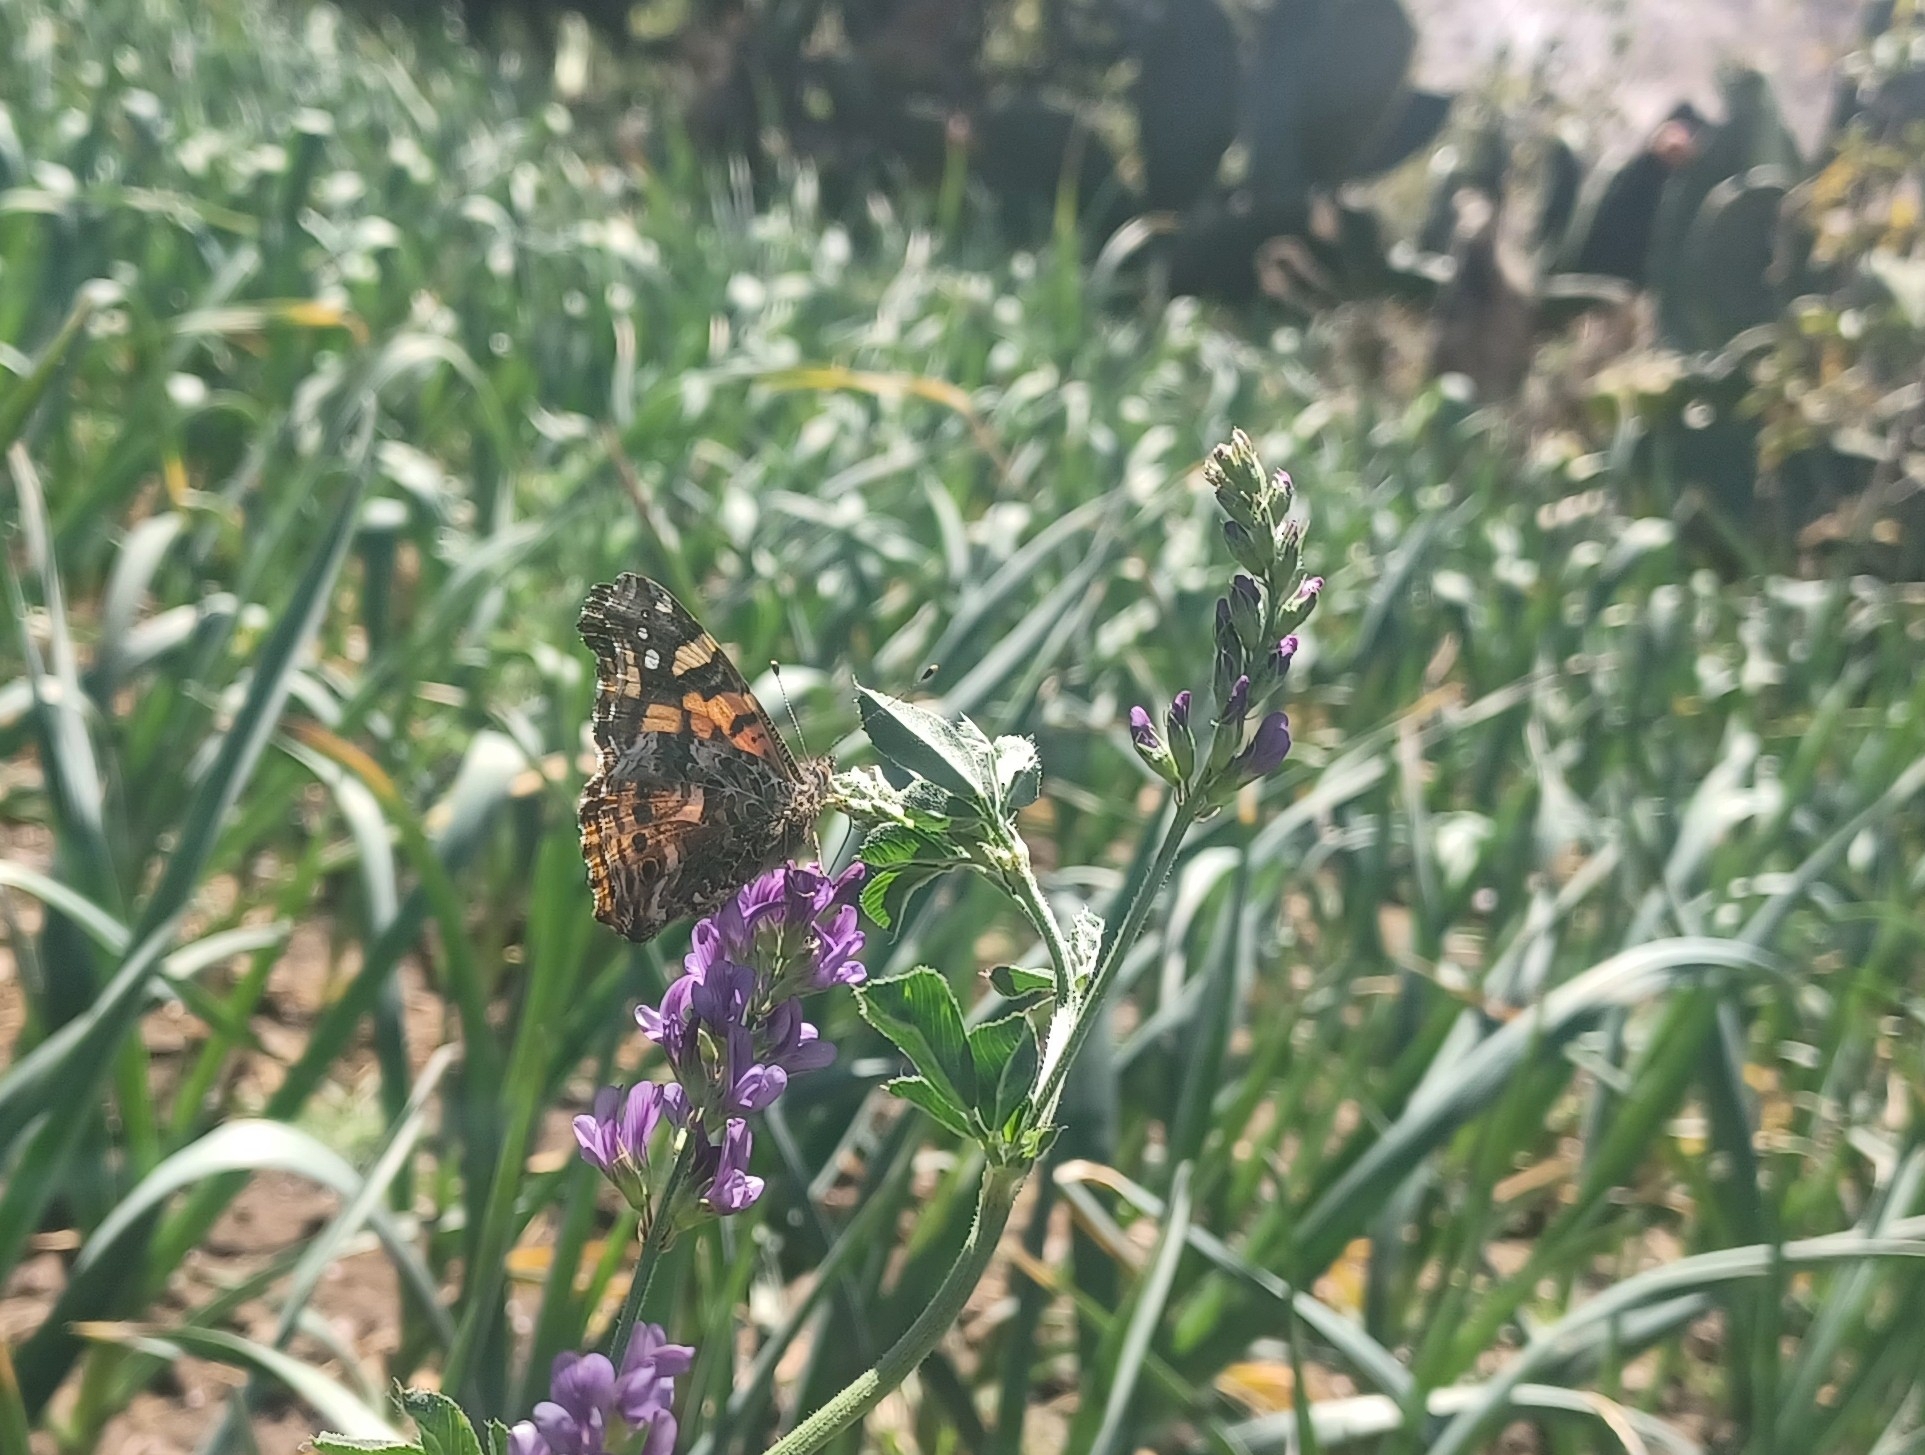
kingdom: Animalia
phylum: Arthropoda
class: Insecta
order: Lepidoptera
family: Nymphalidae
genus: Vanessa
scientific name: Vanessa carye
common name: Subtropical lady
